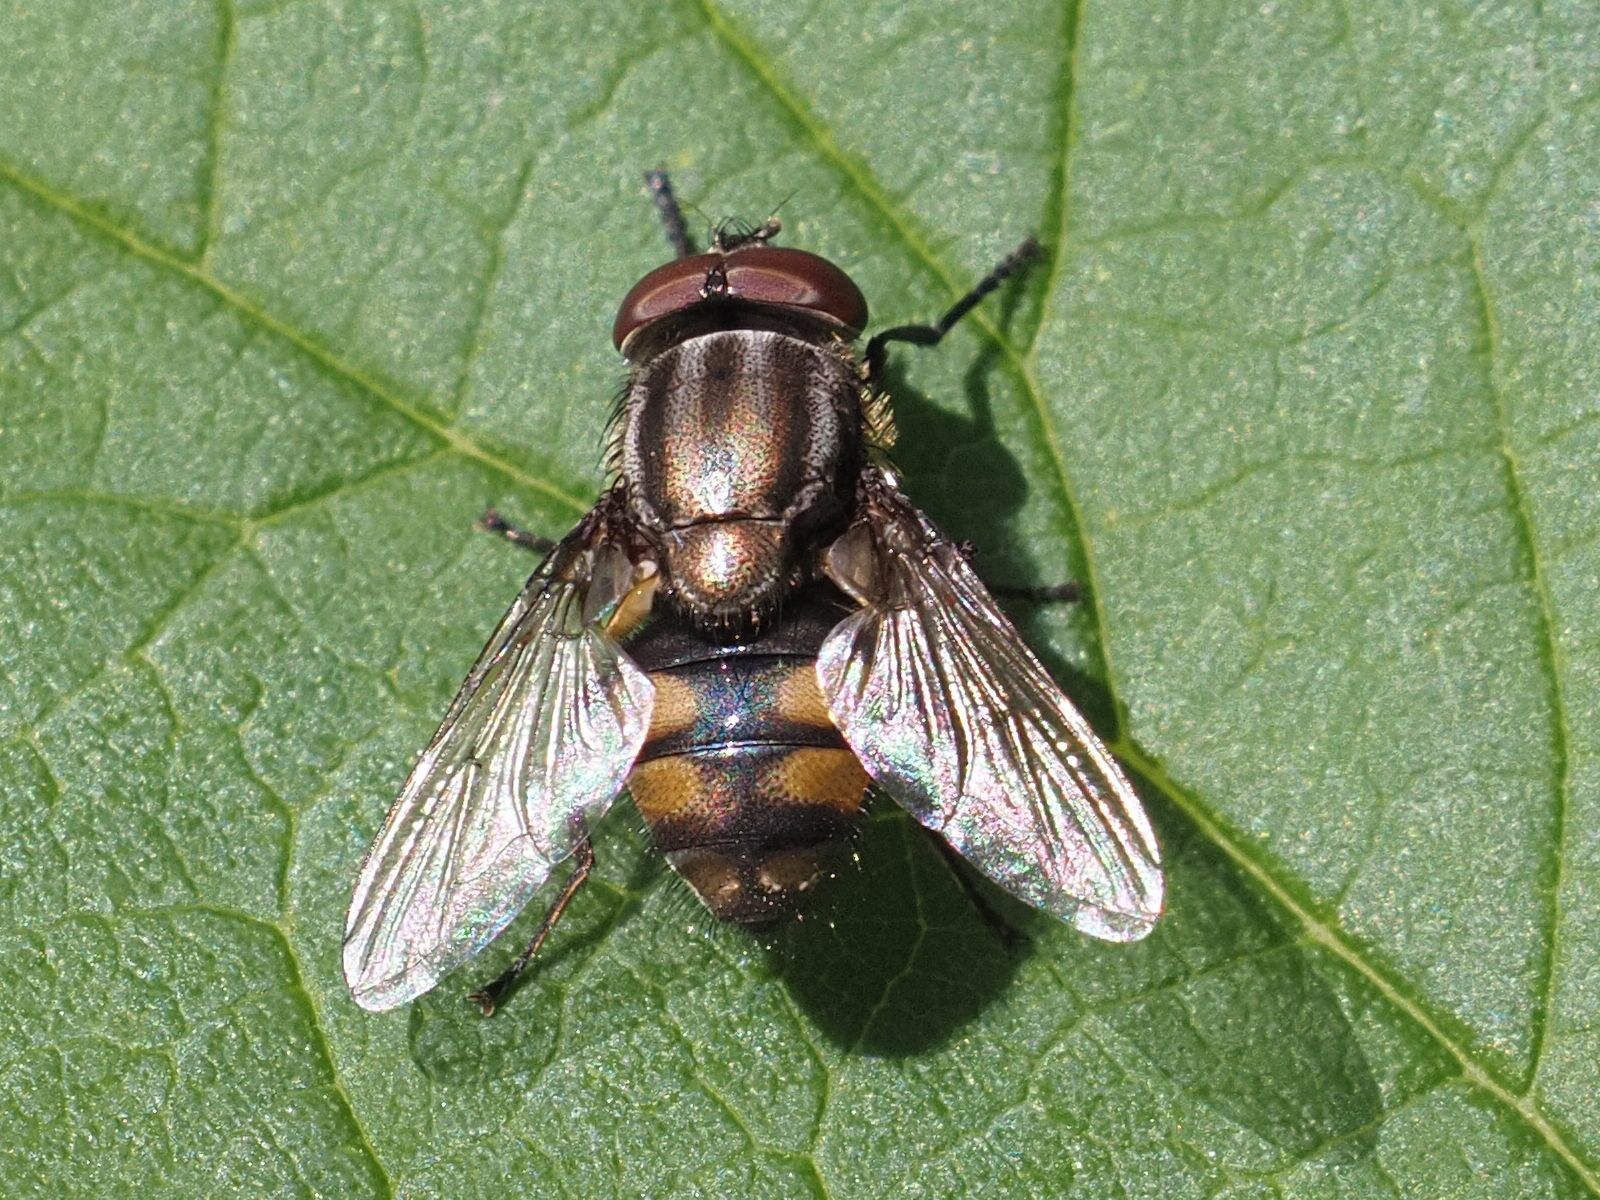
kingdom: Animalia
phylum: Arthropoda
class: Insecta
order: Diptera
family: Calliphoridae
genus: Stomorhina
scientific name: Stomorhina lunata
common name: Locust blowfly
